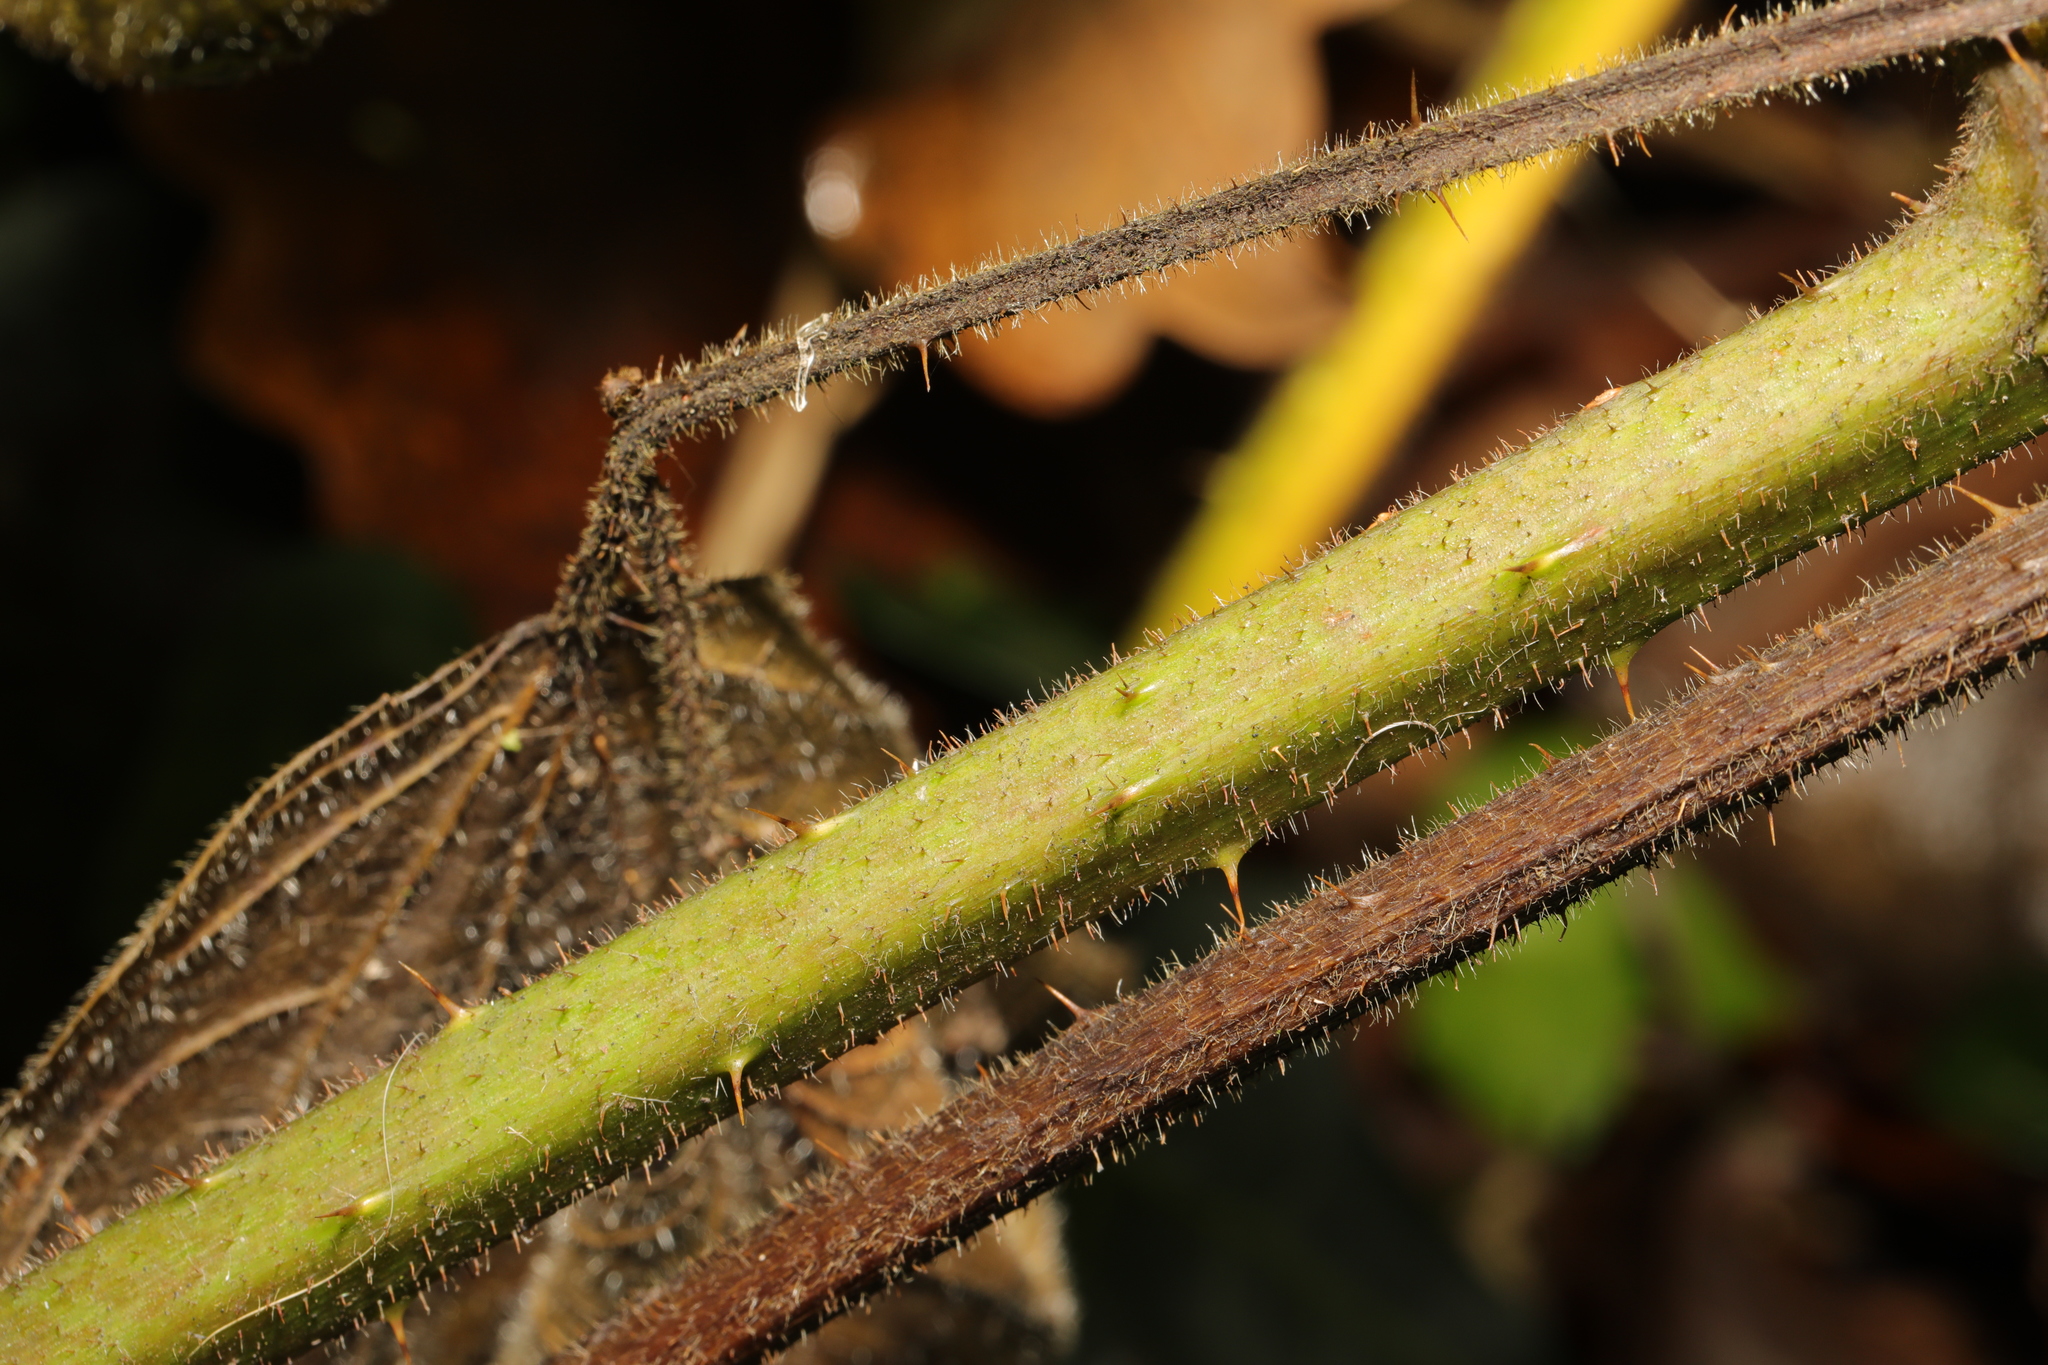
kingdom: Plantae
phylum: Tracheophyta
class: Magnoliopsida
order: Rosales
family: Rosaceae
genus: Rubus
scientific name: Rubus rufescens
